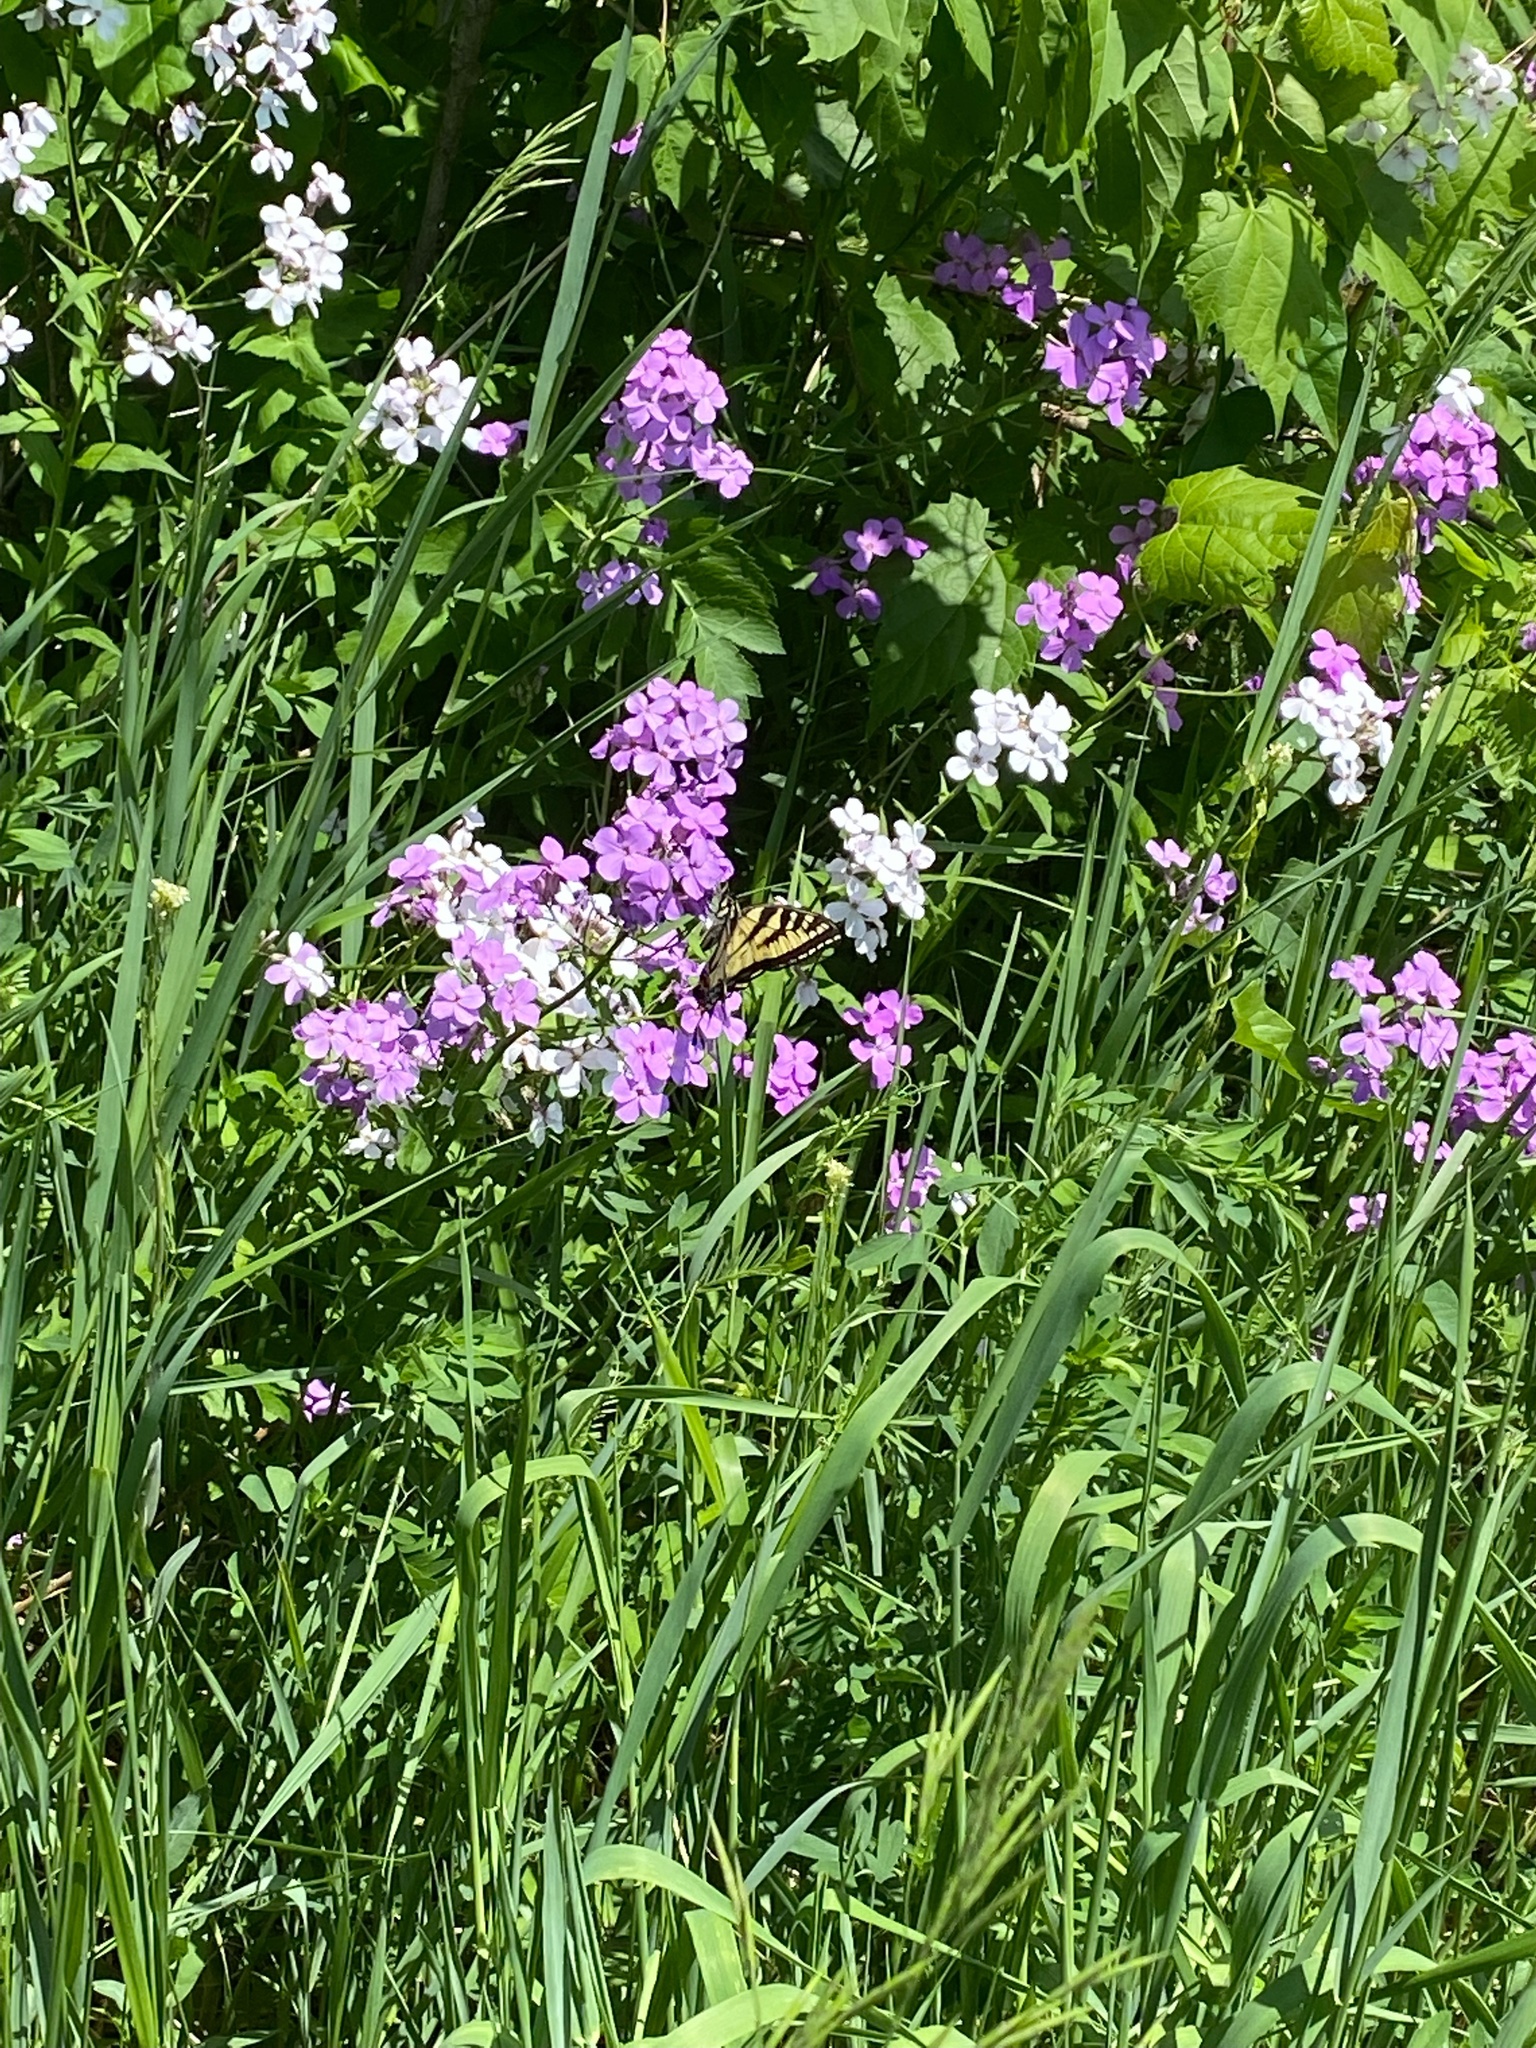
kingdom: Plantae
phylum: Tracheophyta
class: Magnoliopsida
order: Brassicales
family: Brassicaceae
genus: Hesperis
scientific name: Hesperis matronalis
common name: Dame's-violet
